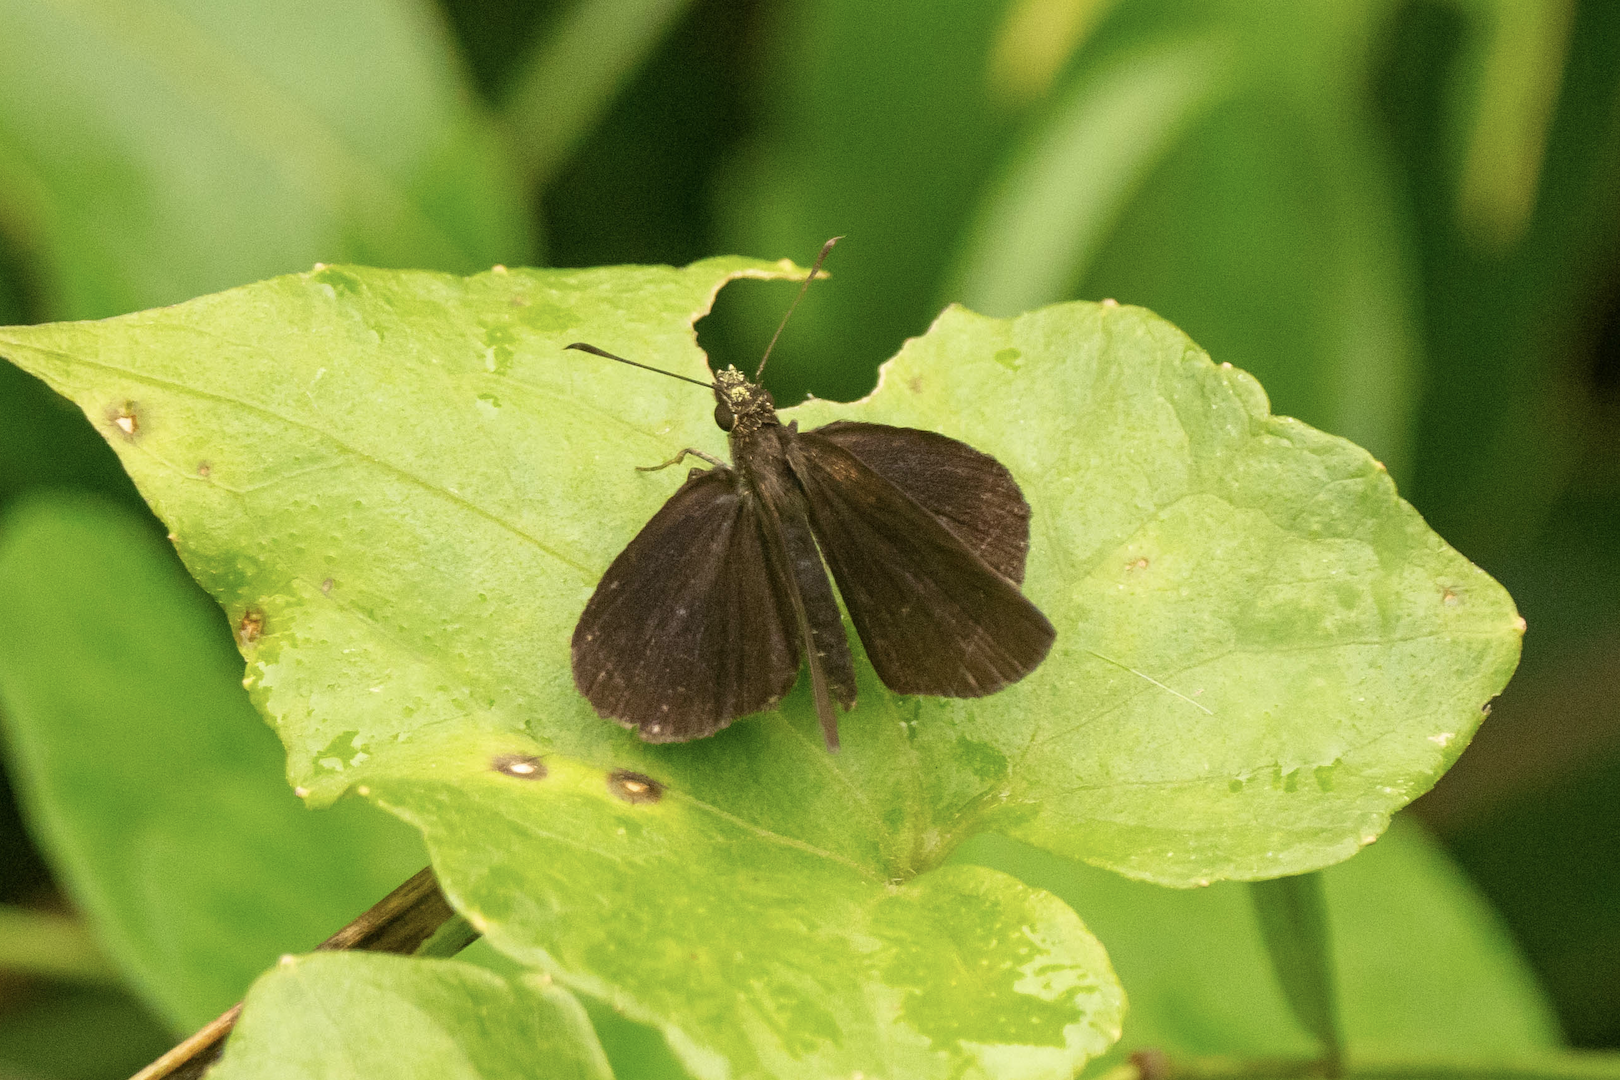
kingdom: Animalia
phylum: Arthropoda
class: Insecta
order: Lepidoptera
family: Hesperiidae
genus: Astictopterus
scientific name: Astictopterus jama
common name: Forest hopper
